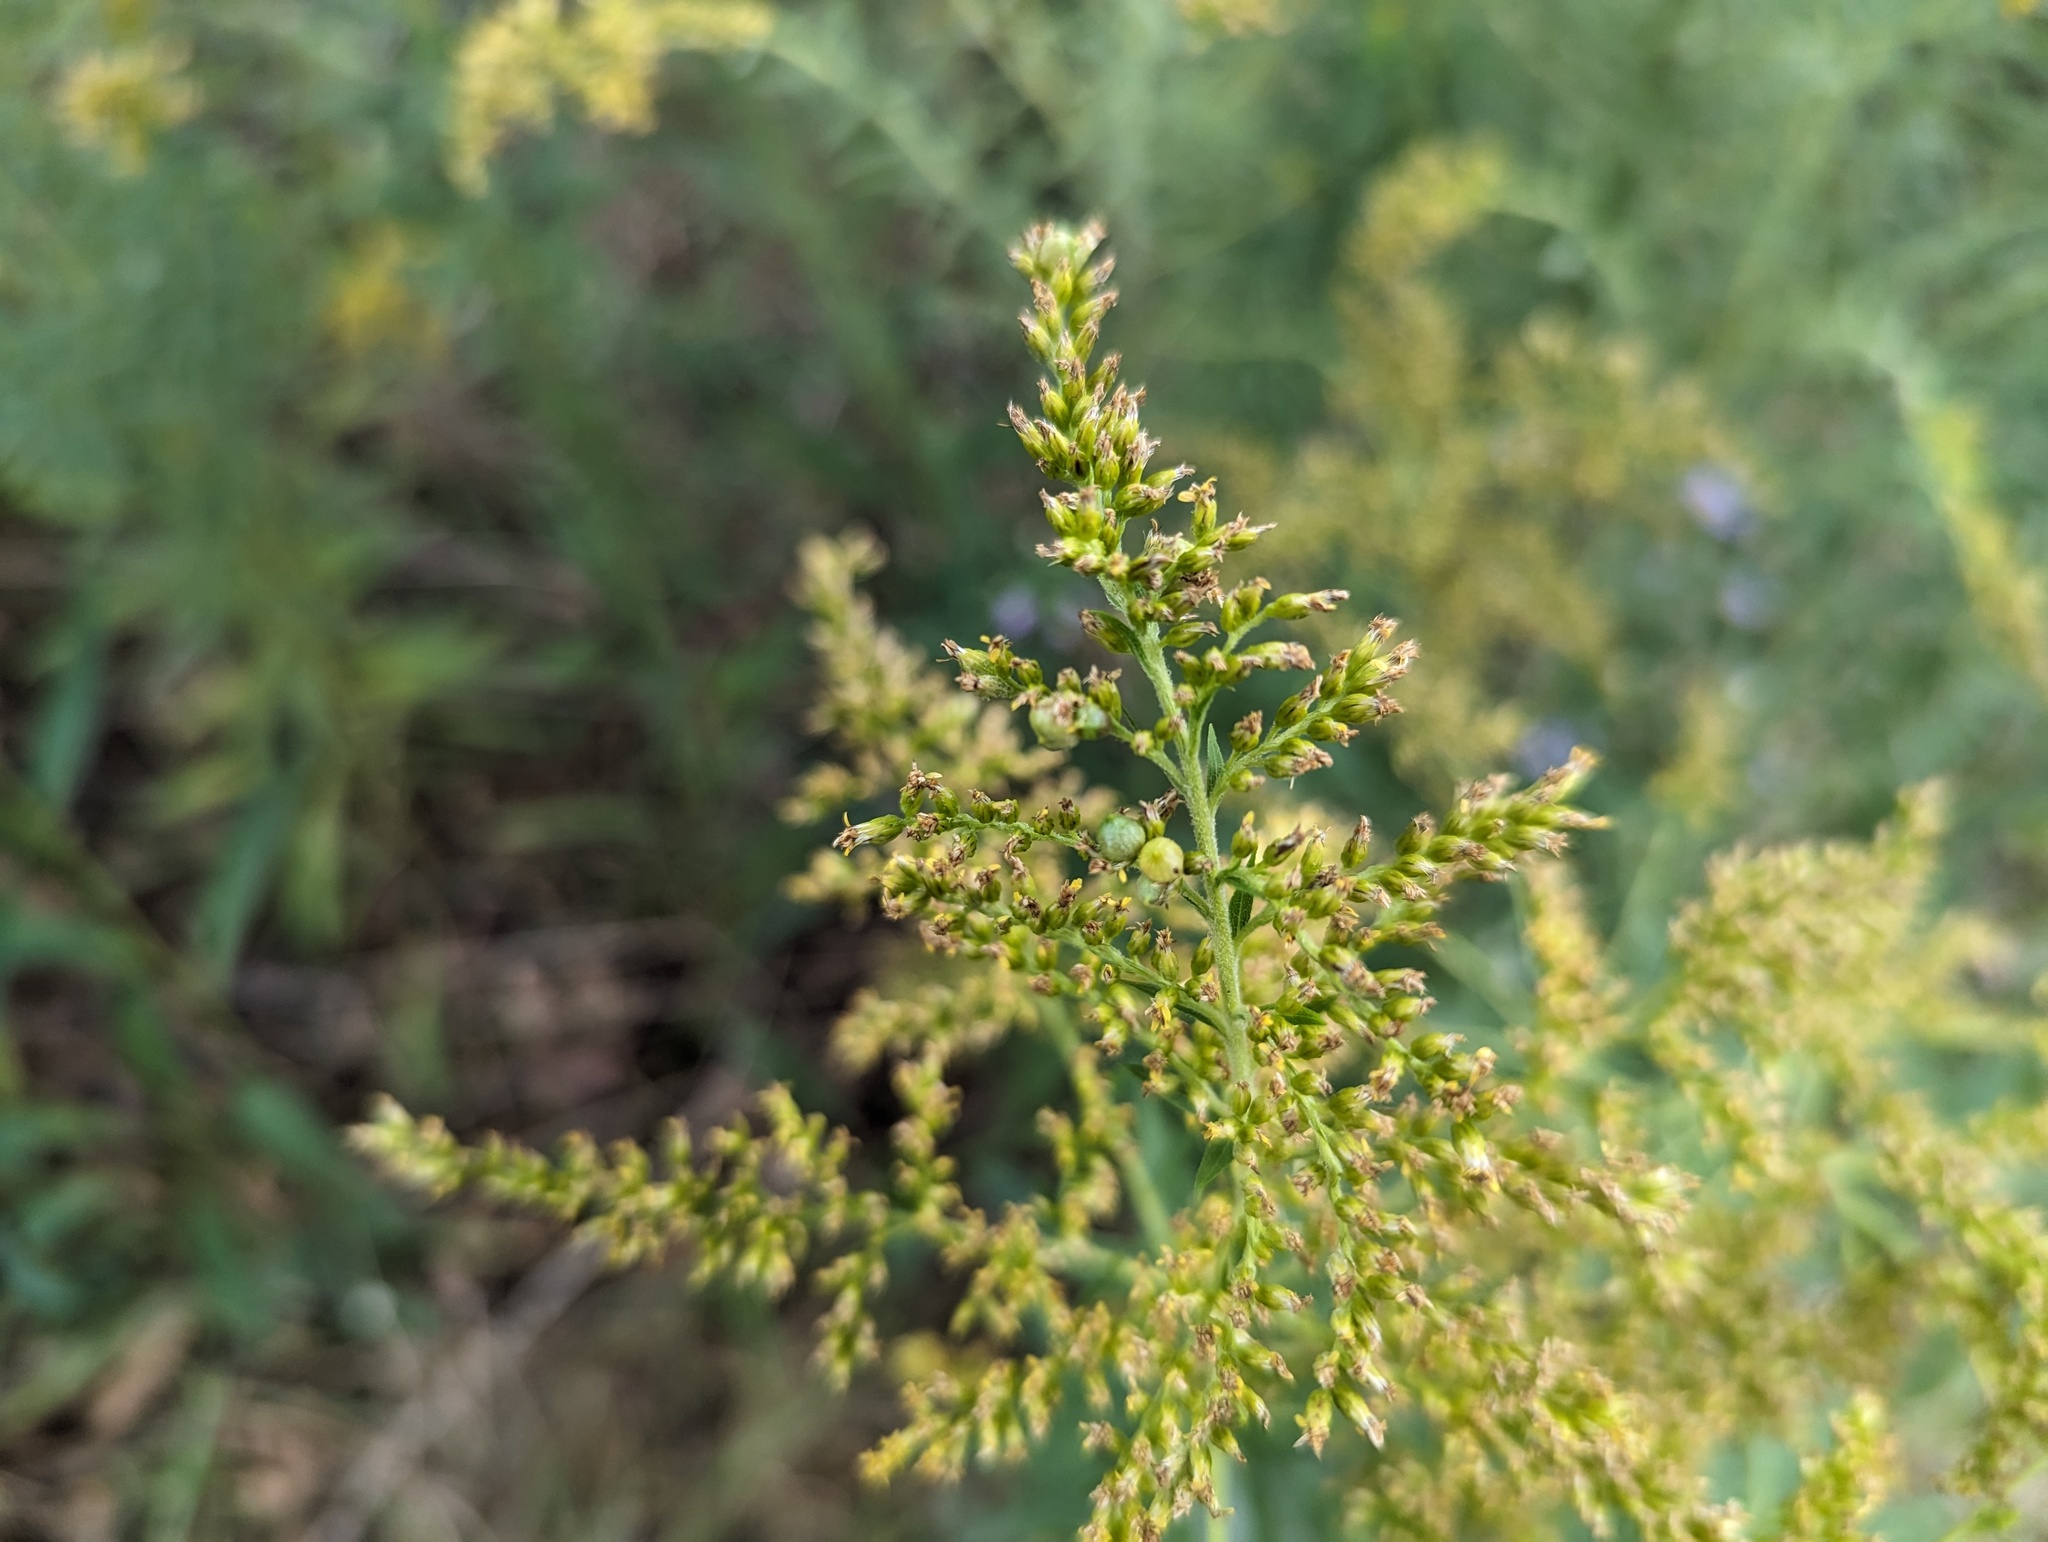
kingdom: Animalia
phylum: Arthropoda
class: Insecta
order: Diptera
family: Cecidomyiidae
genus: Schizomyia
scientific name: Schizomyia racemicola
